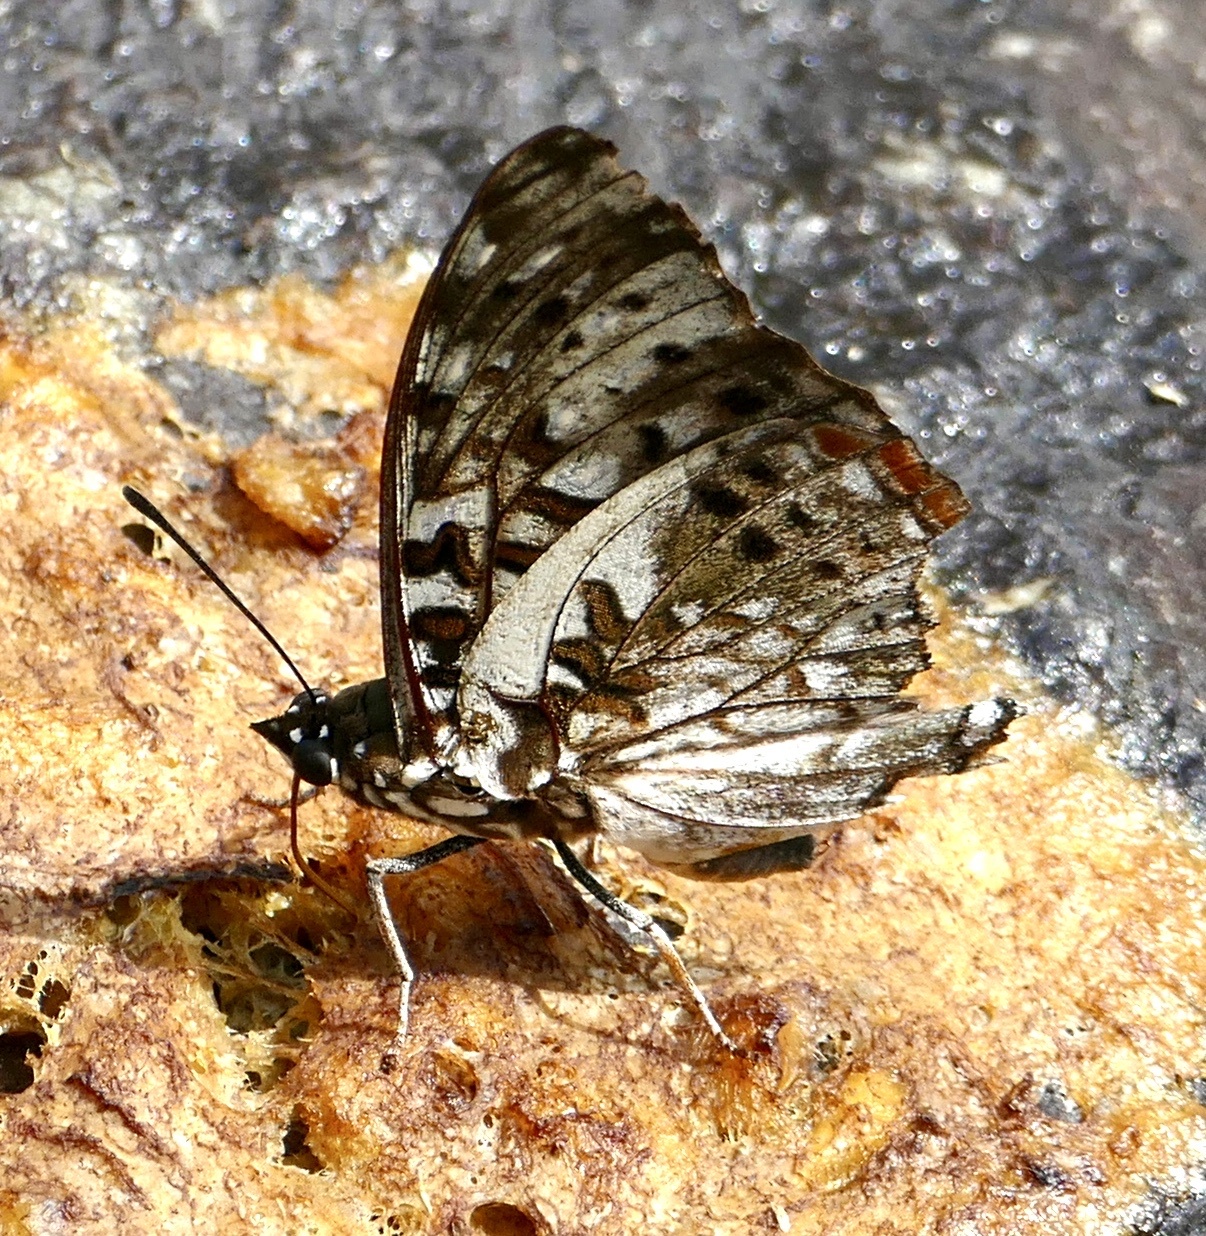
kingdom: Animalia
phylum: Arthropoda
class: Insecta
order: Lepidoptera
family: Nymphalidae
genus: Charaxes
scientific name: Charaxes etesipe
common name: Savannah charaxes
